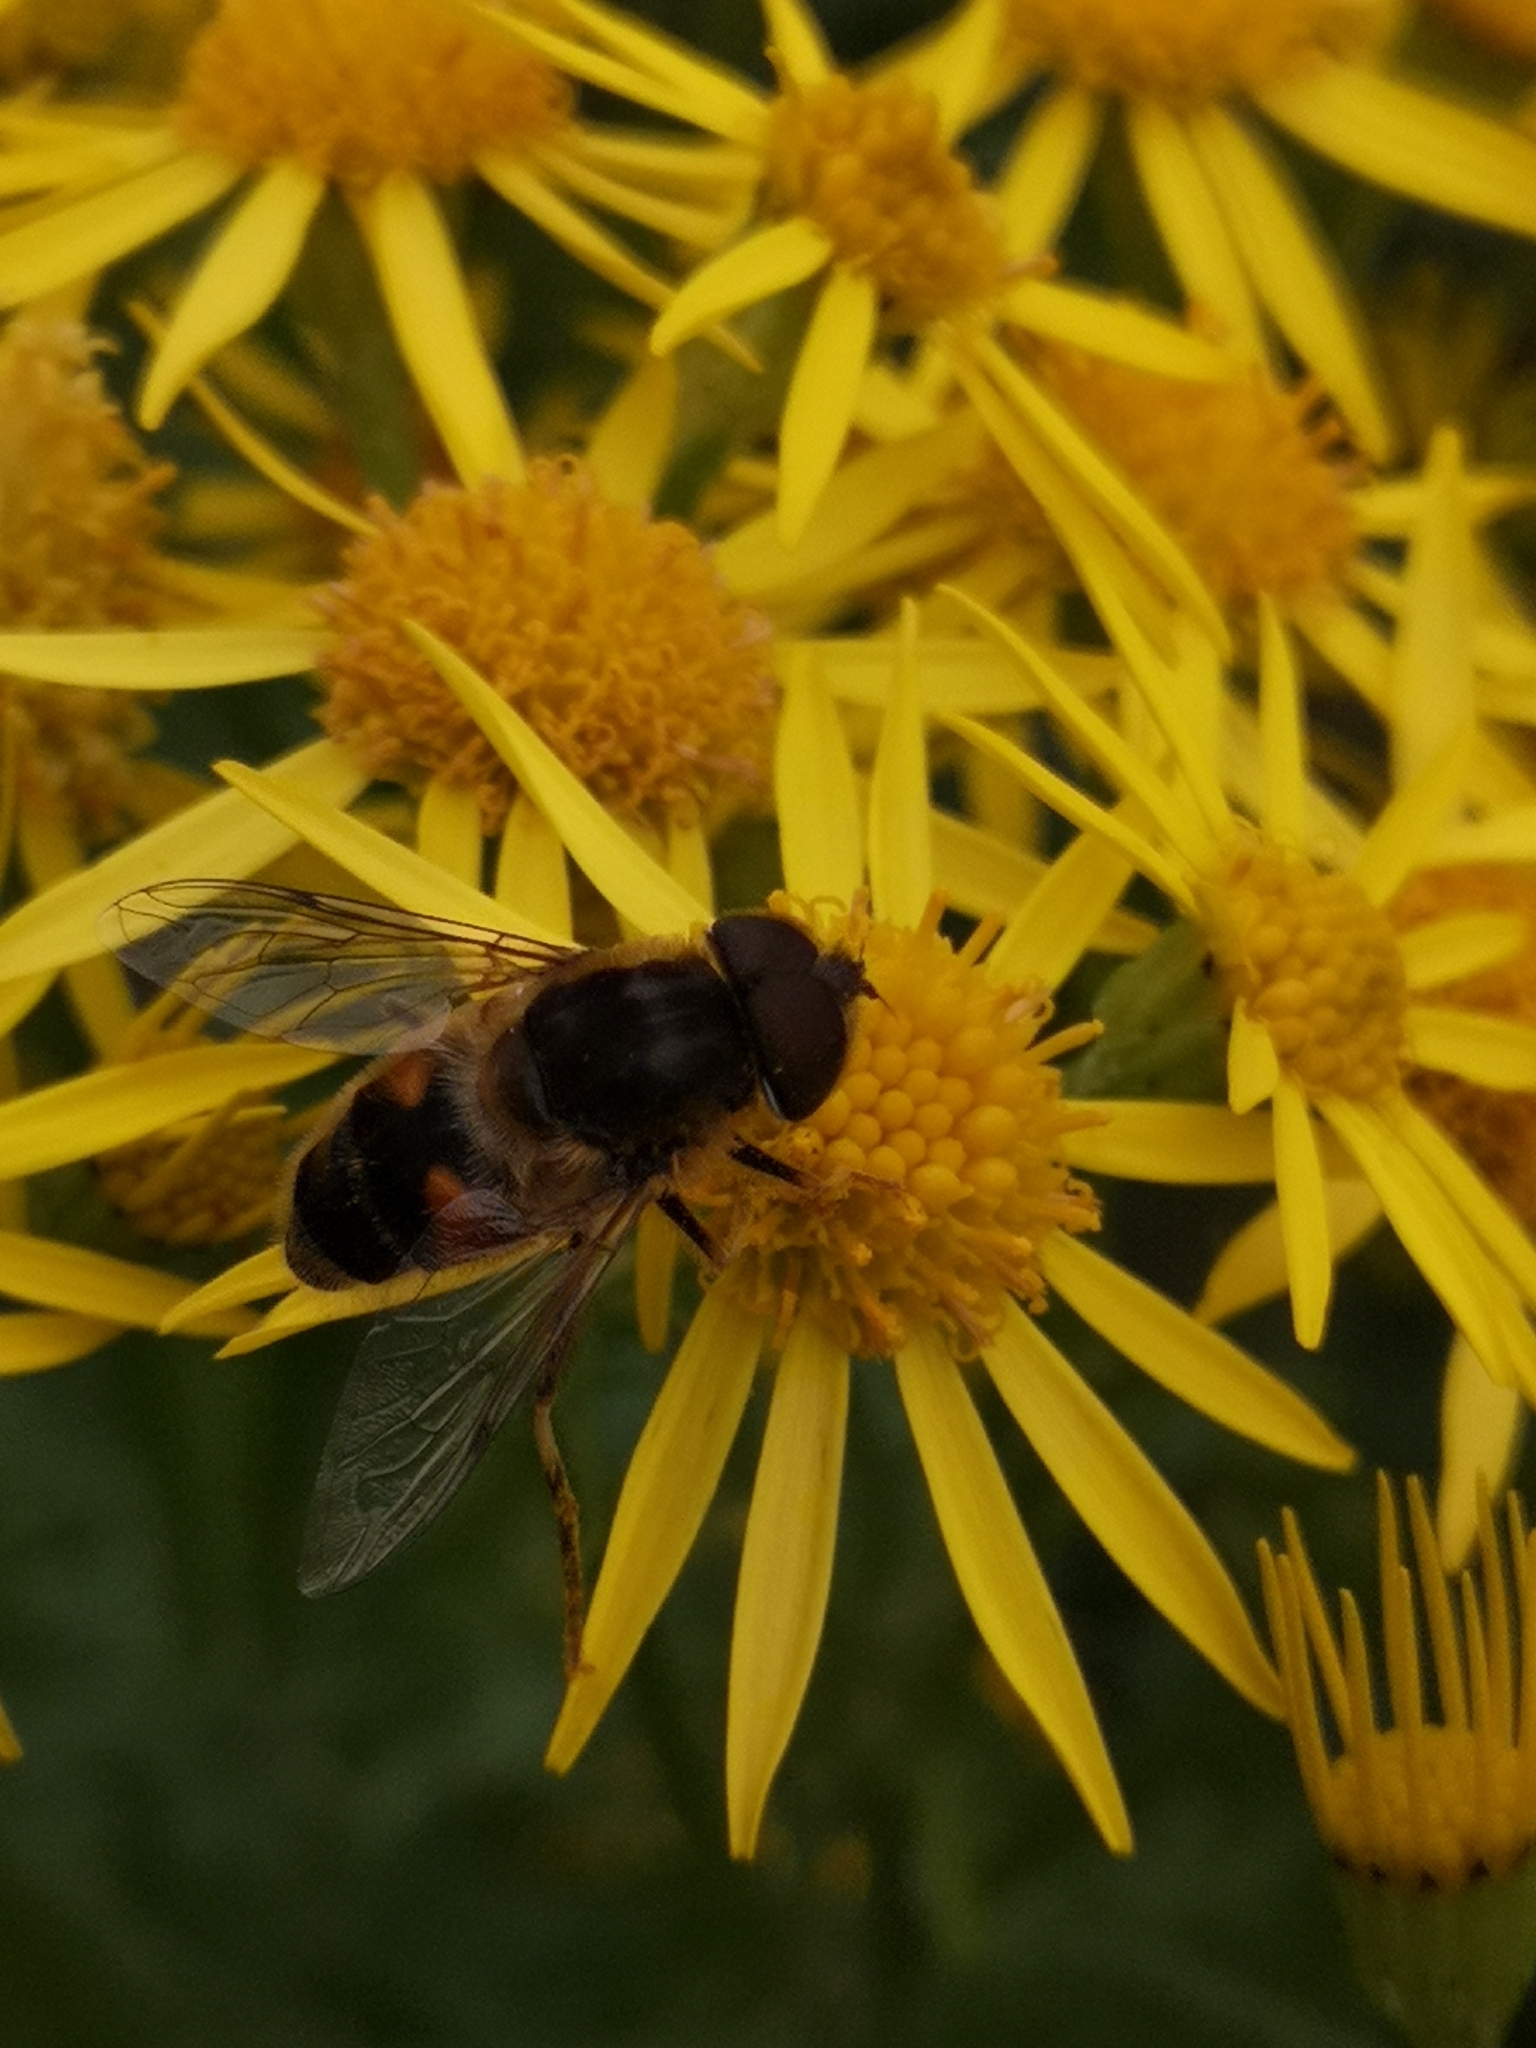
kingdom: Animalia
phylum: Arthropoda
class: Insecta
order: Diptera
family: Syrphidae
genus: Eristalis
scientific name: Eristalis pertinax
